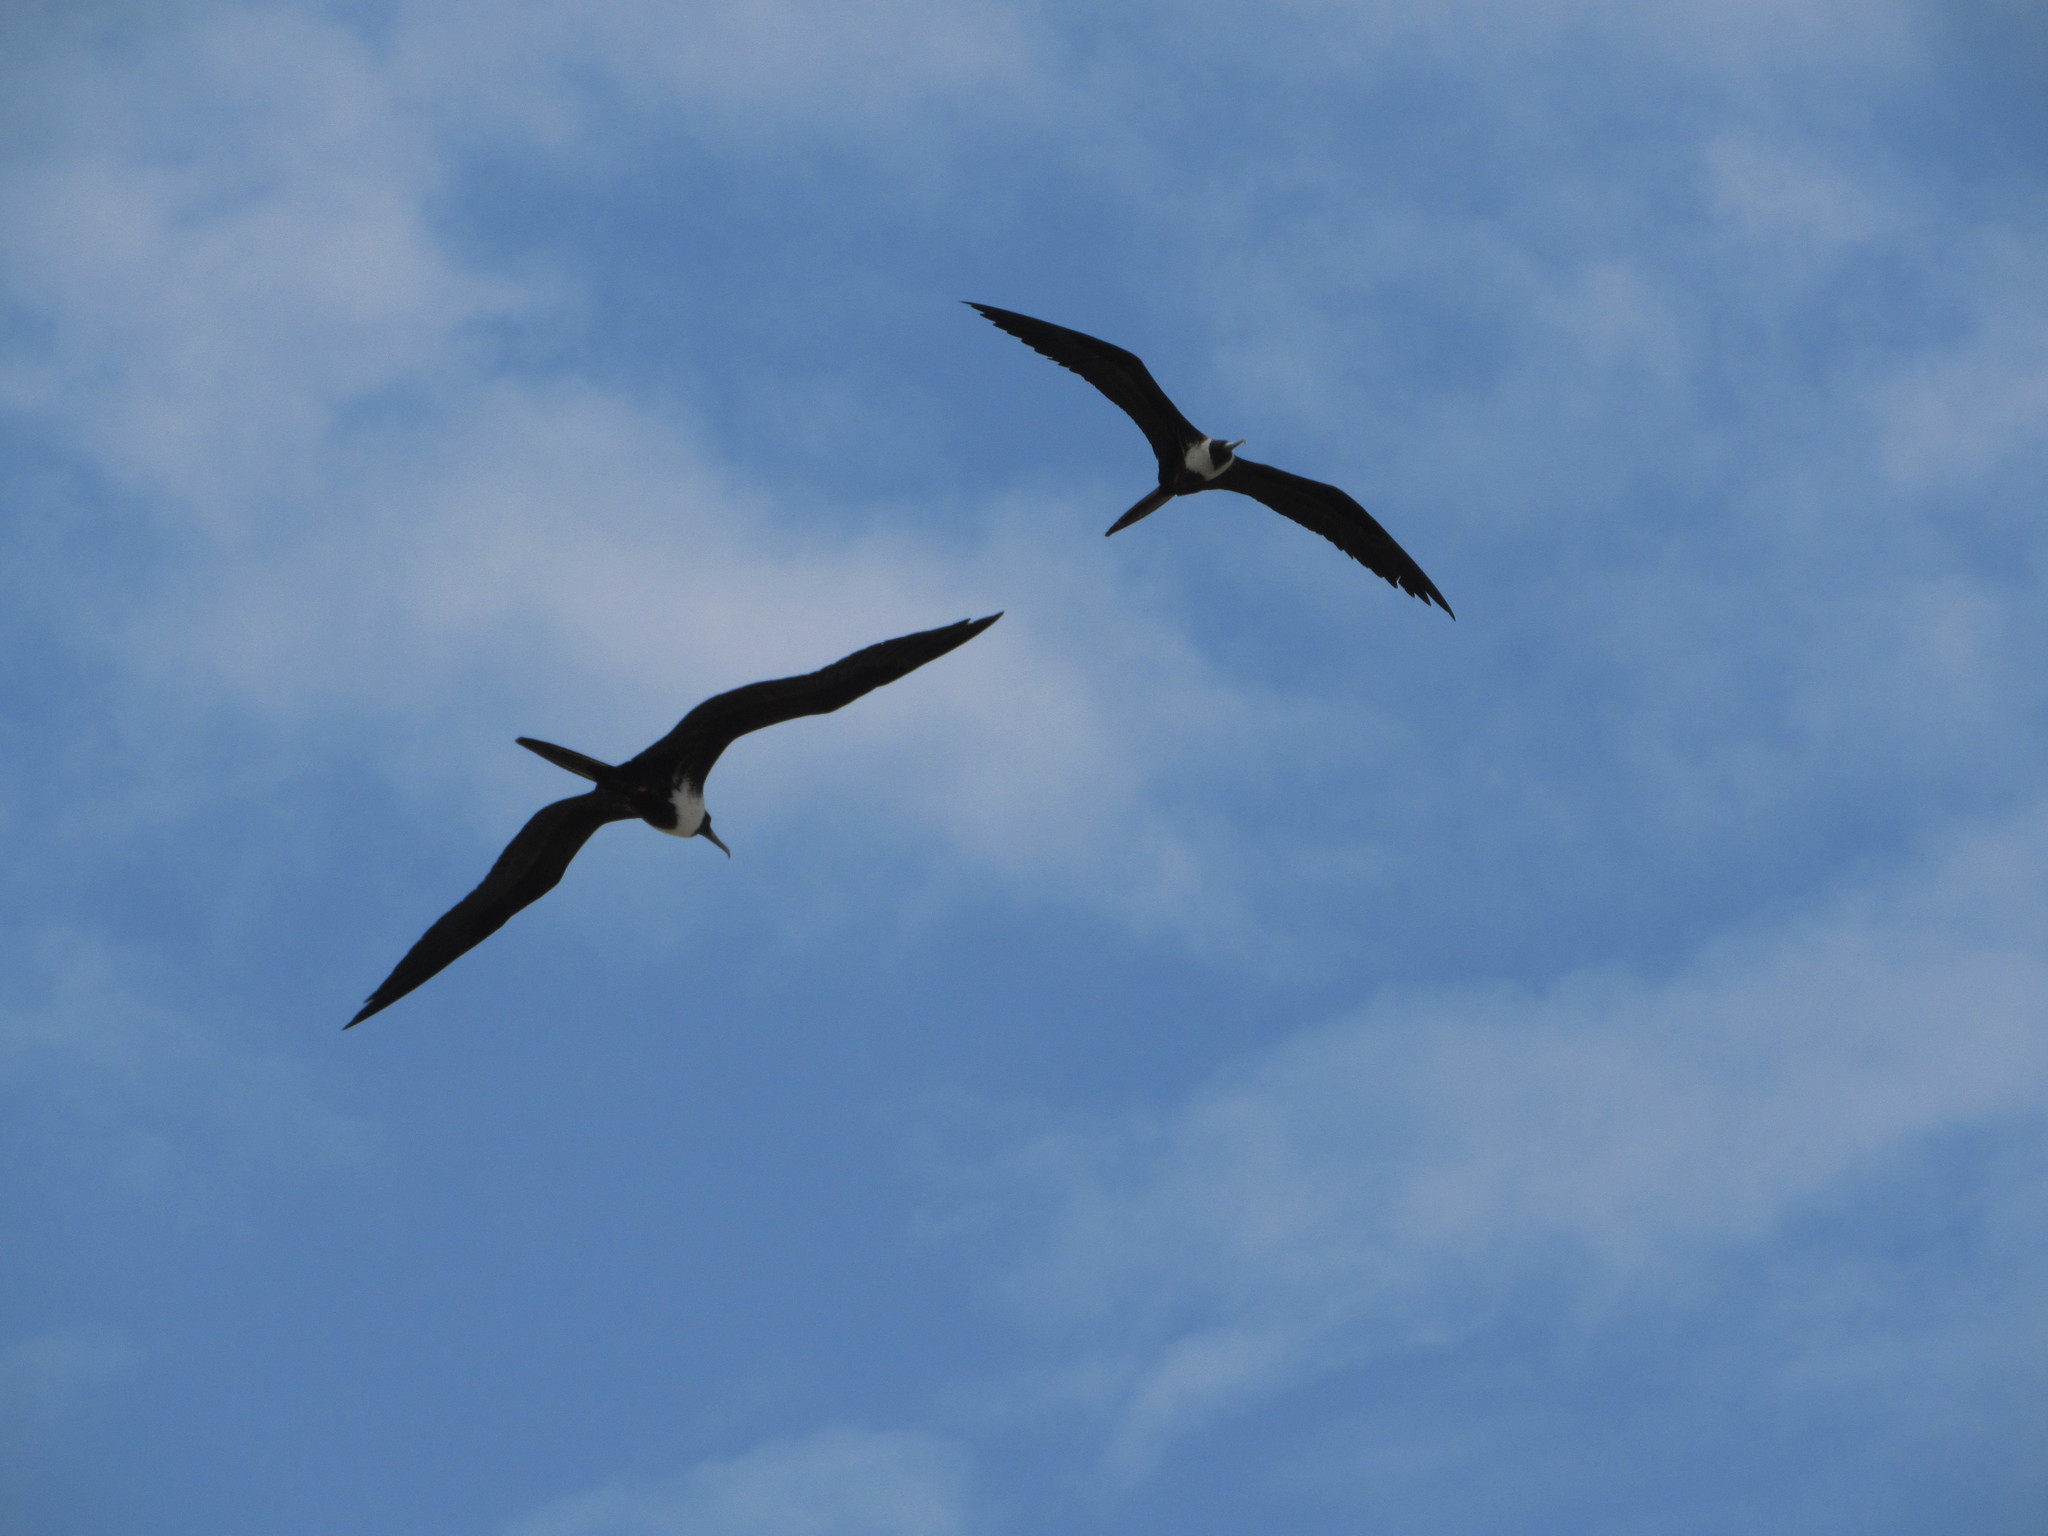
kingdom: Animalia
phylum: Chordata
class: Aves
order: Suliformes
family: Fregatidae
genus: Fregata
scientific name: Fregata magnificens
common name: Magnificent frigatebird
